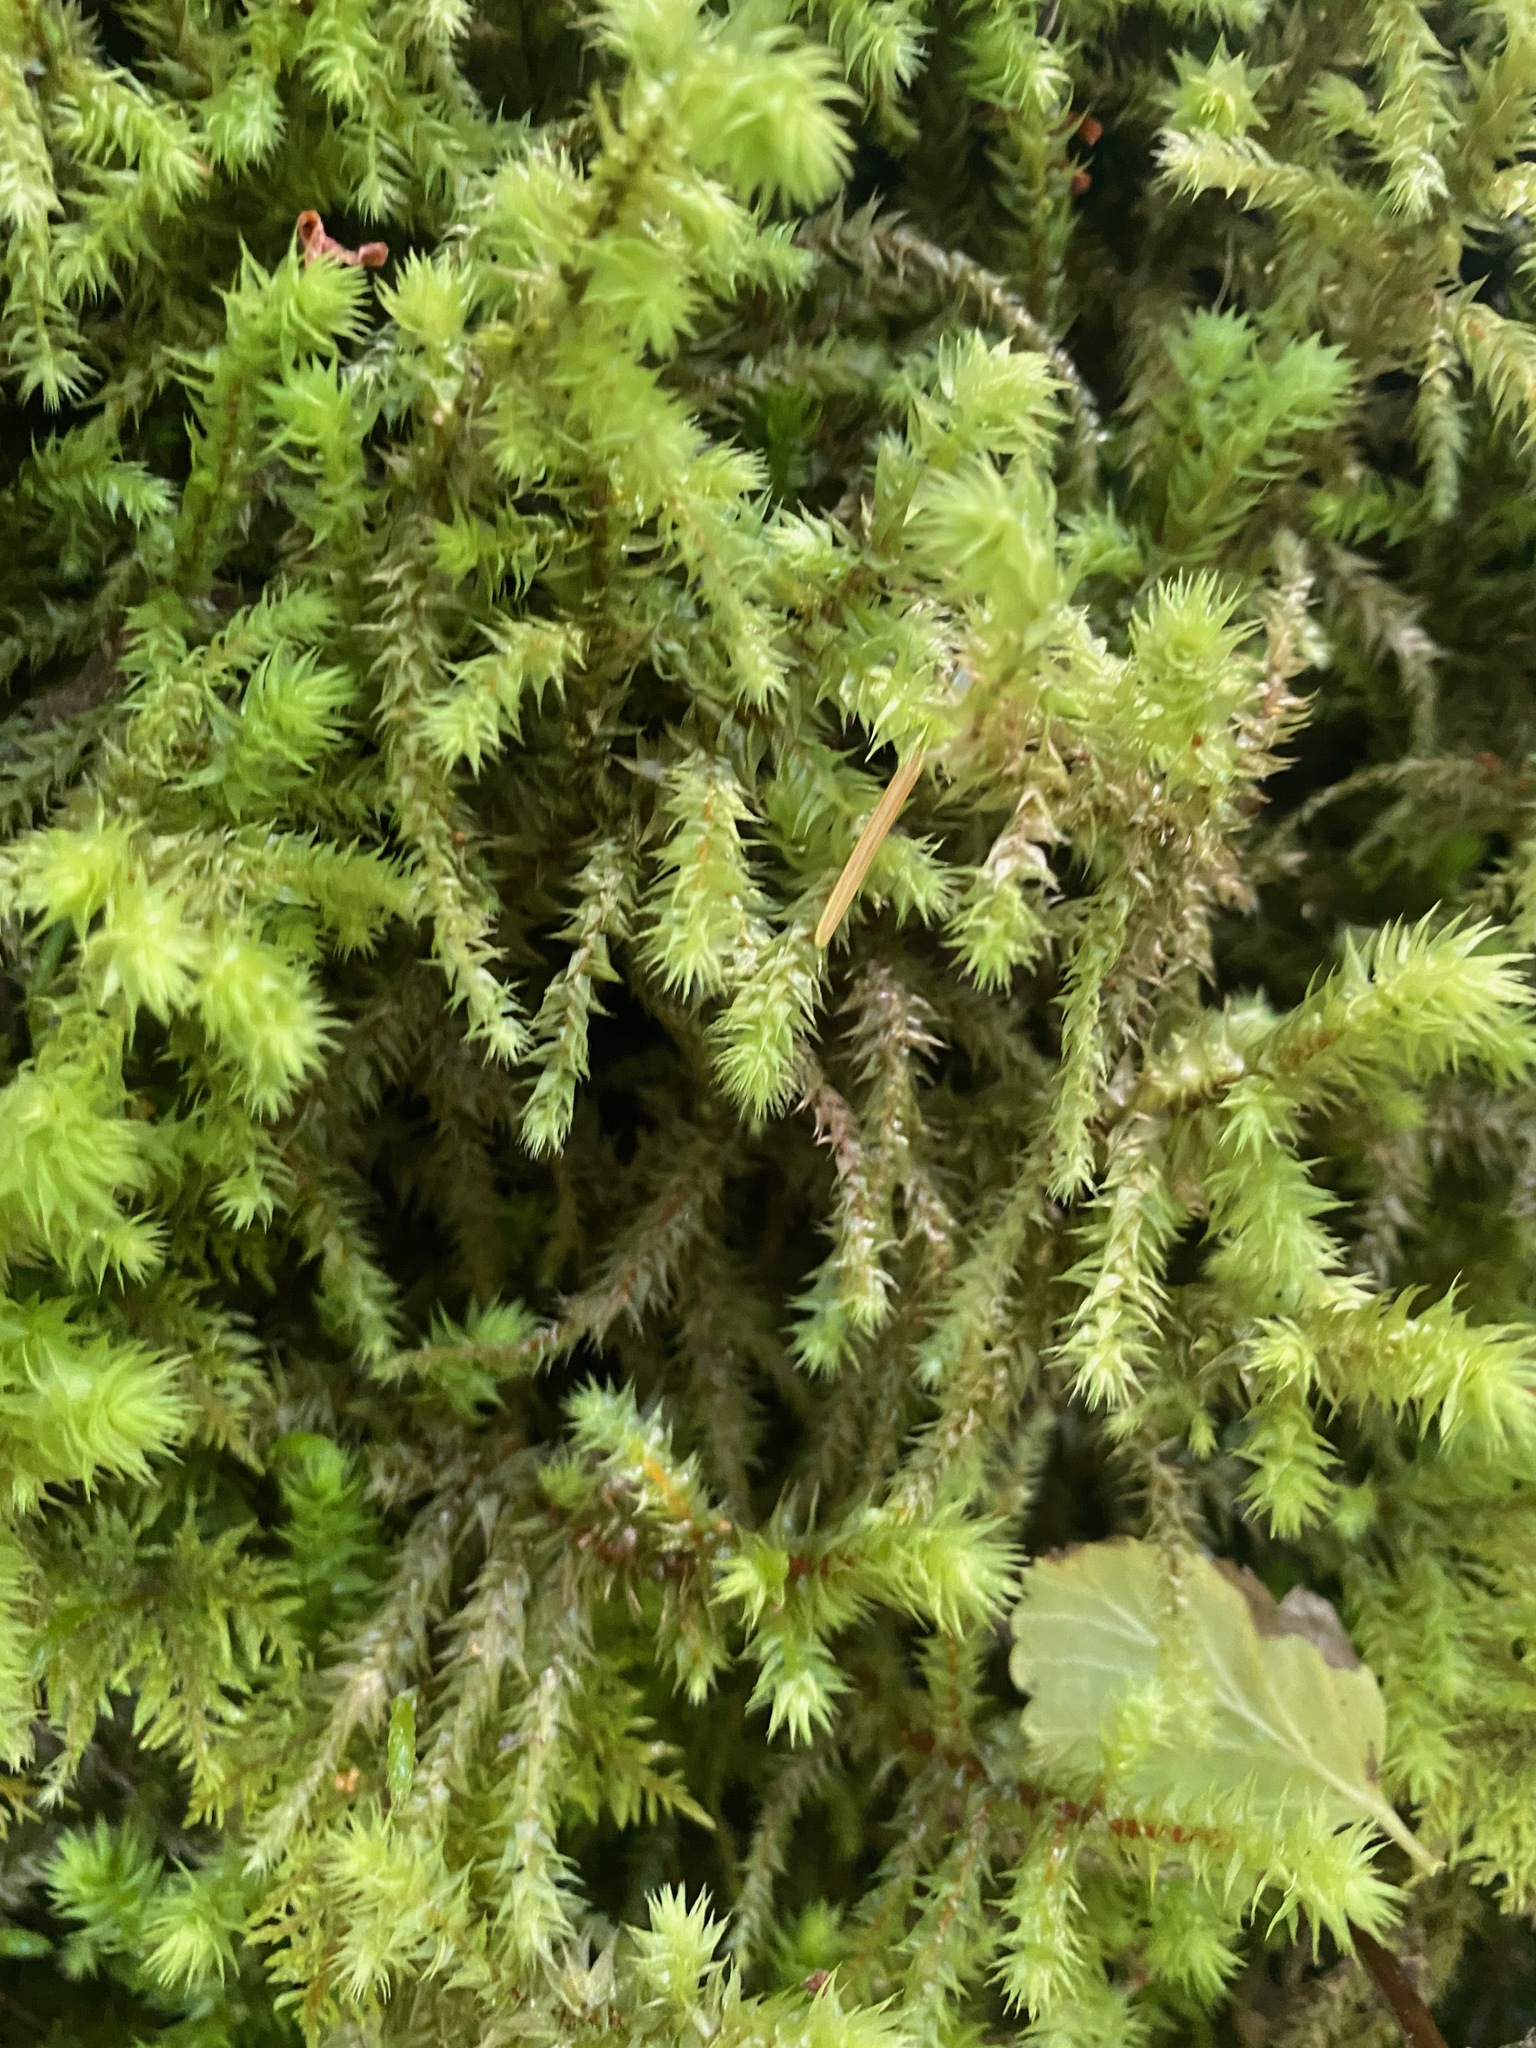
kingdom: Plantae
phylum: Bryophyta
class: Bryopsida
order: Hypnales
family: Hylocomiaceae
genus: Hylocomiadelphus
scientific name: Hylocomiadelphus triquetrus
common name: Rough goose neck moss
